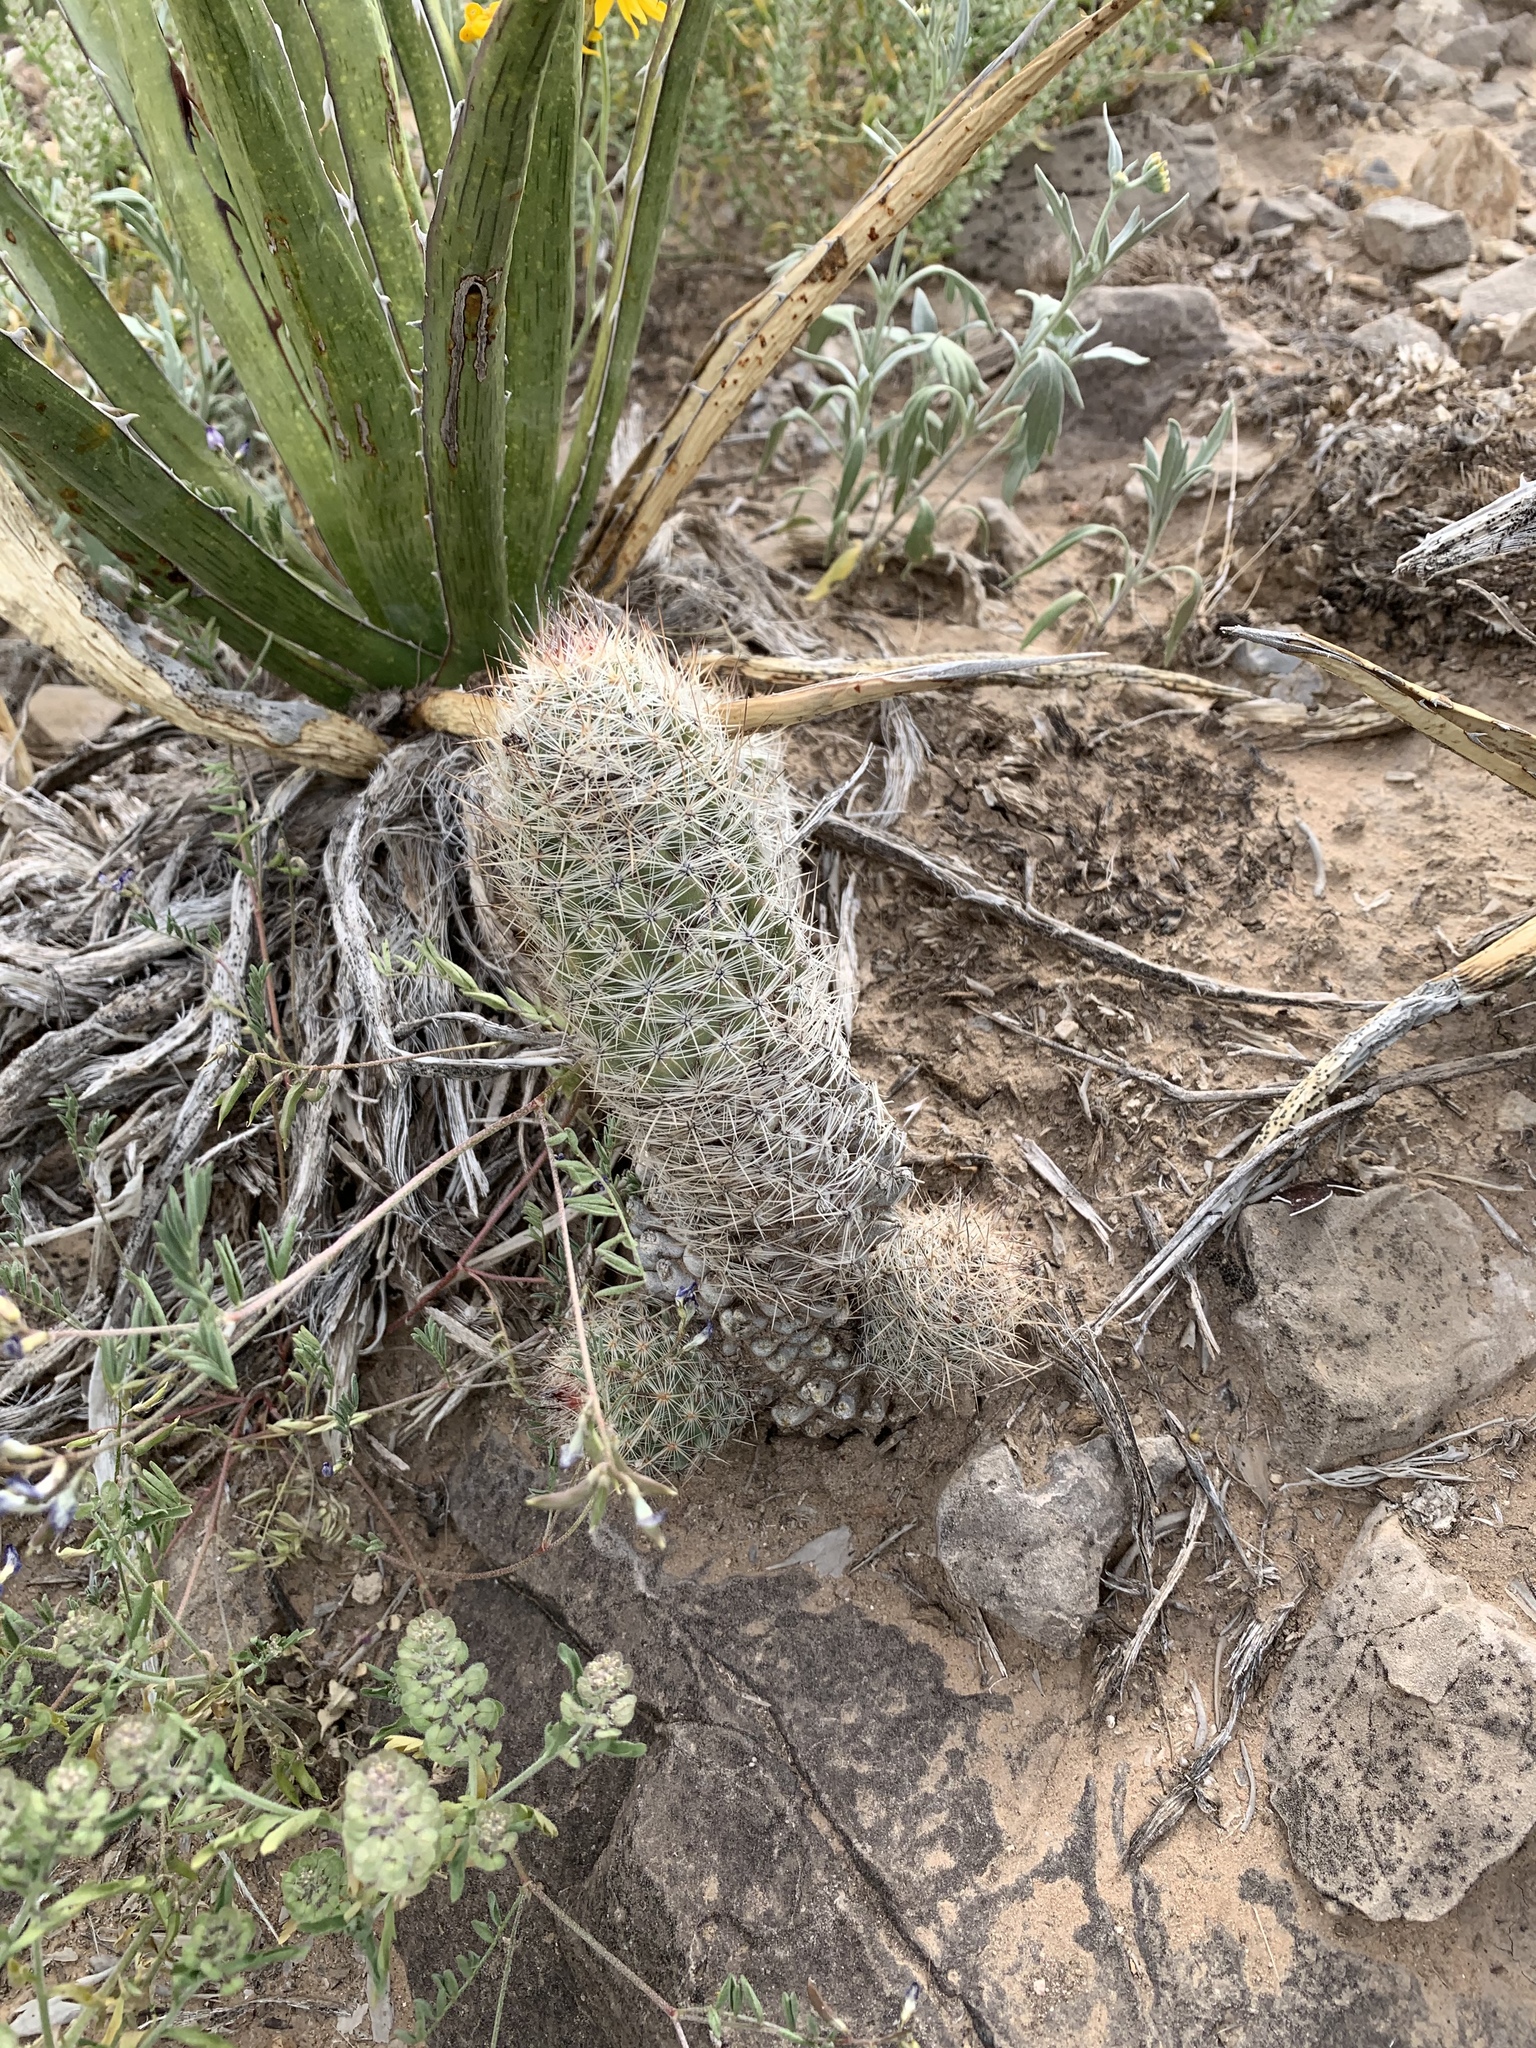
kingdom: Plantae
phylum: Tracheophyta
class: Magnoliopsida
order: Caryophyllales
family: Cactaceae
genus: Pelecyphora
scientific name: Pelecyphora tuberculosa
